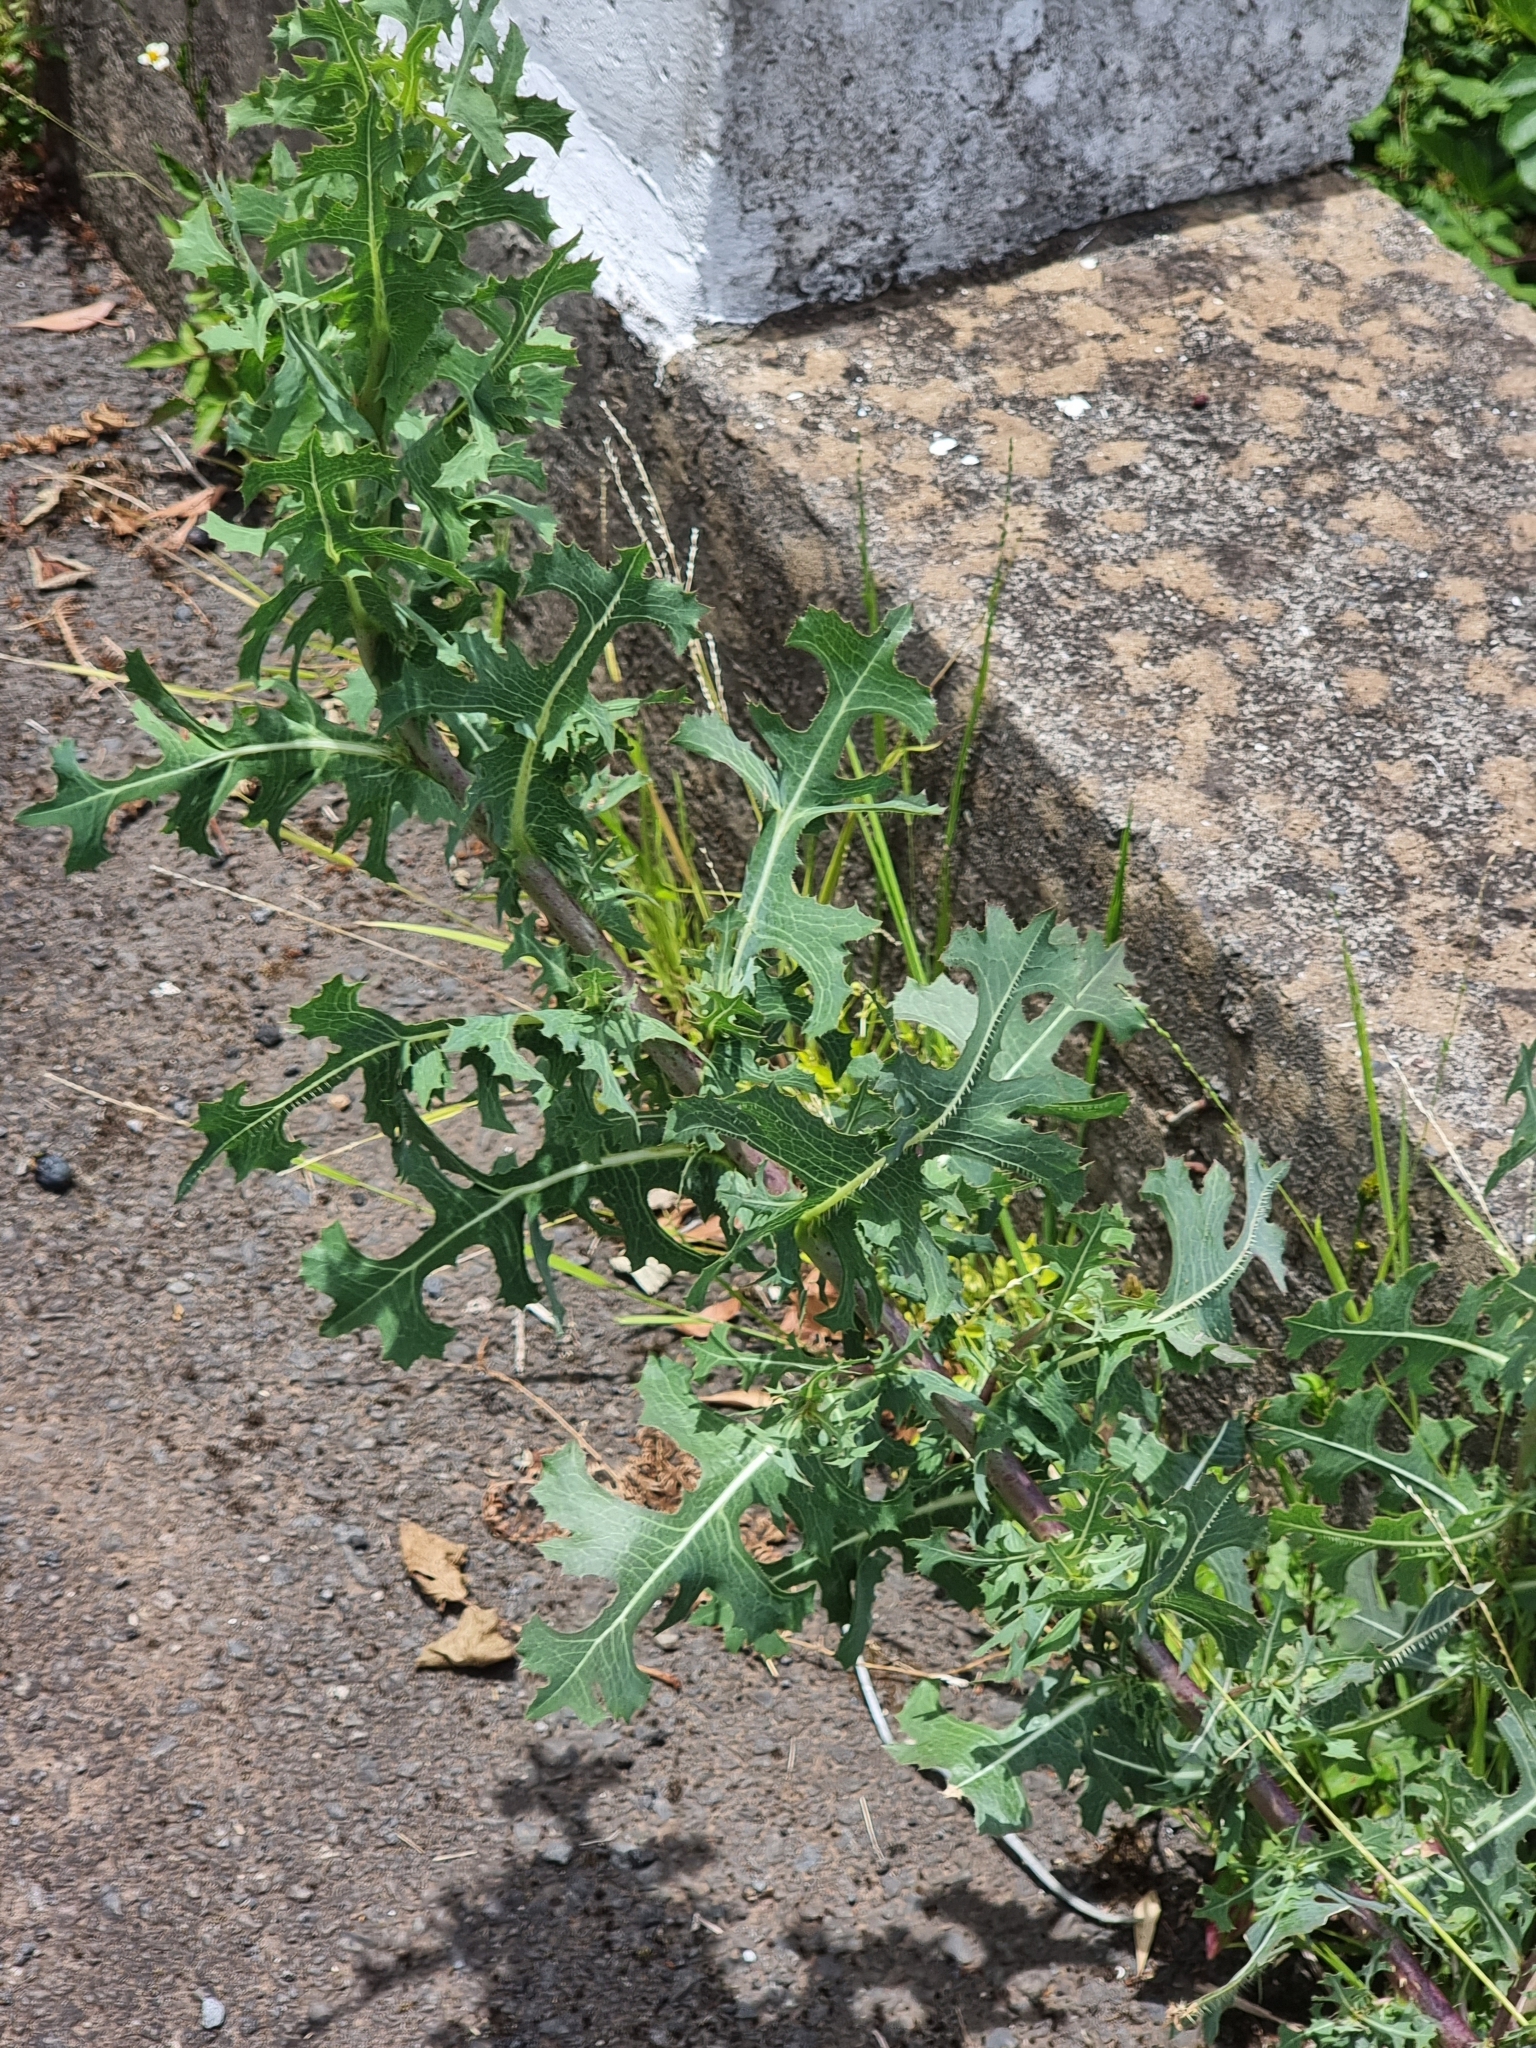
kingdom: Plantae
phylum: Tracheophyta
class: Magnoliopsida
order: Asterales
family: Asteraceae
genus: Lactuca
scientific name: Lactuca serriola
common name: Prickly lettuce
